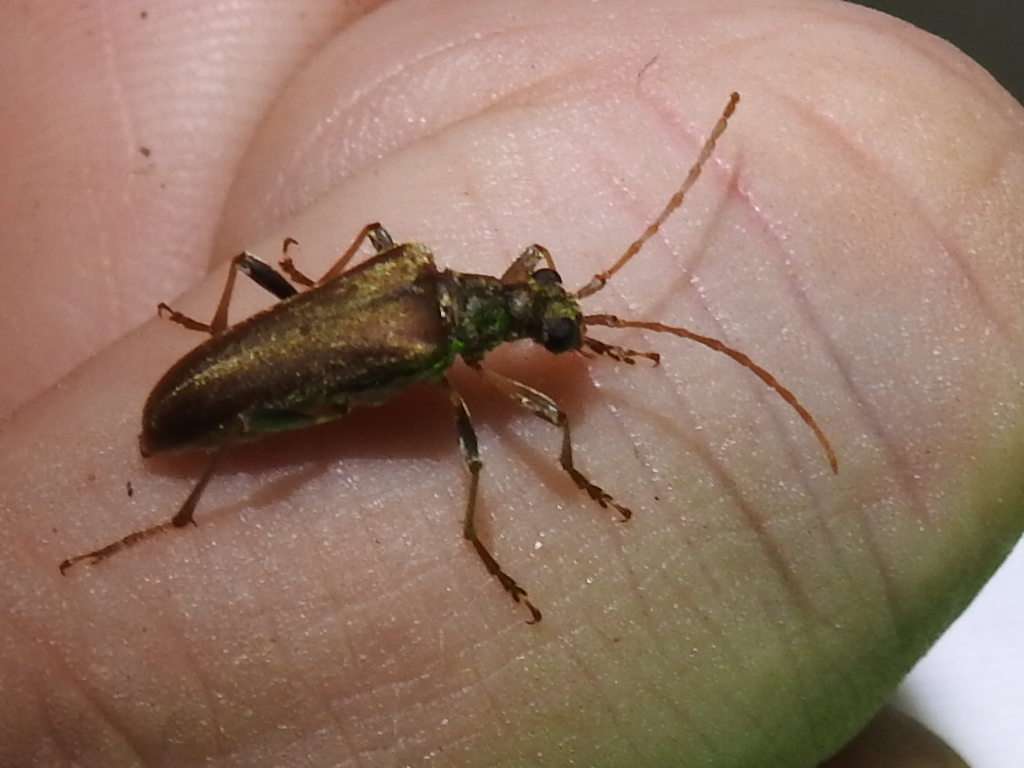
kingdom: Animalia
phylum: Arthropoda
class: Insecta
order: Coleoptera
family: Cerambycidae
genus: Stenocorus
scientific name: Stenocorus cinnamopterus
